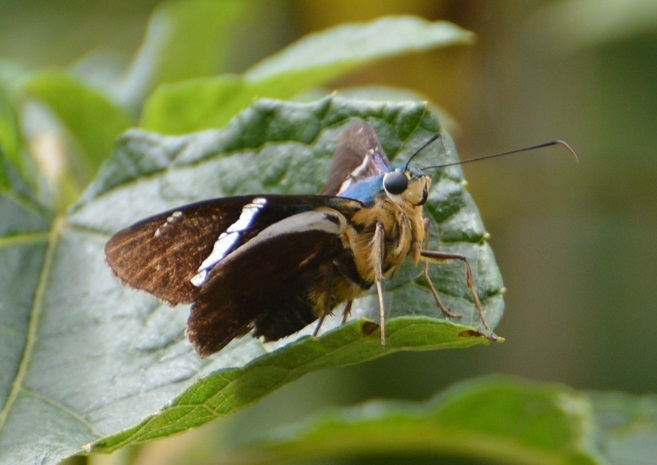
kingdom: Animalia
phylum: Arthropoda
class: Insecta
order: Lepidoptera
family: Hesperiidae
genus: Astraptes
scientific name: Astraptes fulgerator
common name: Two-barred flasher
